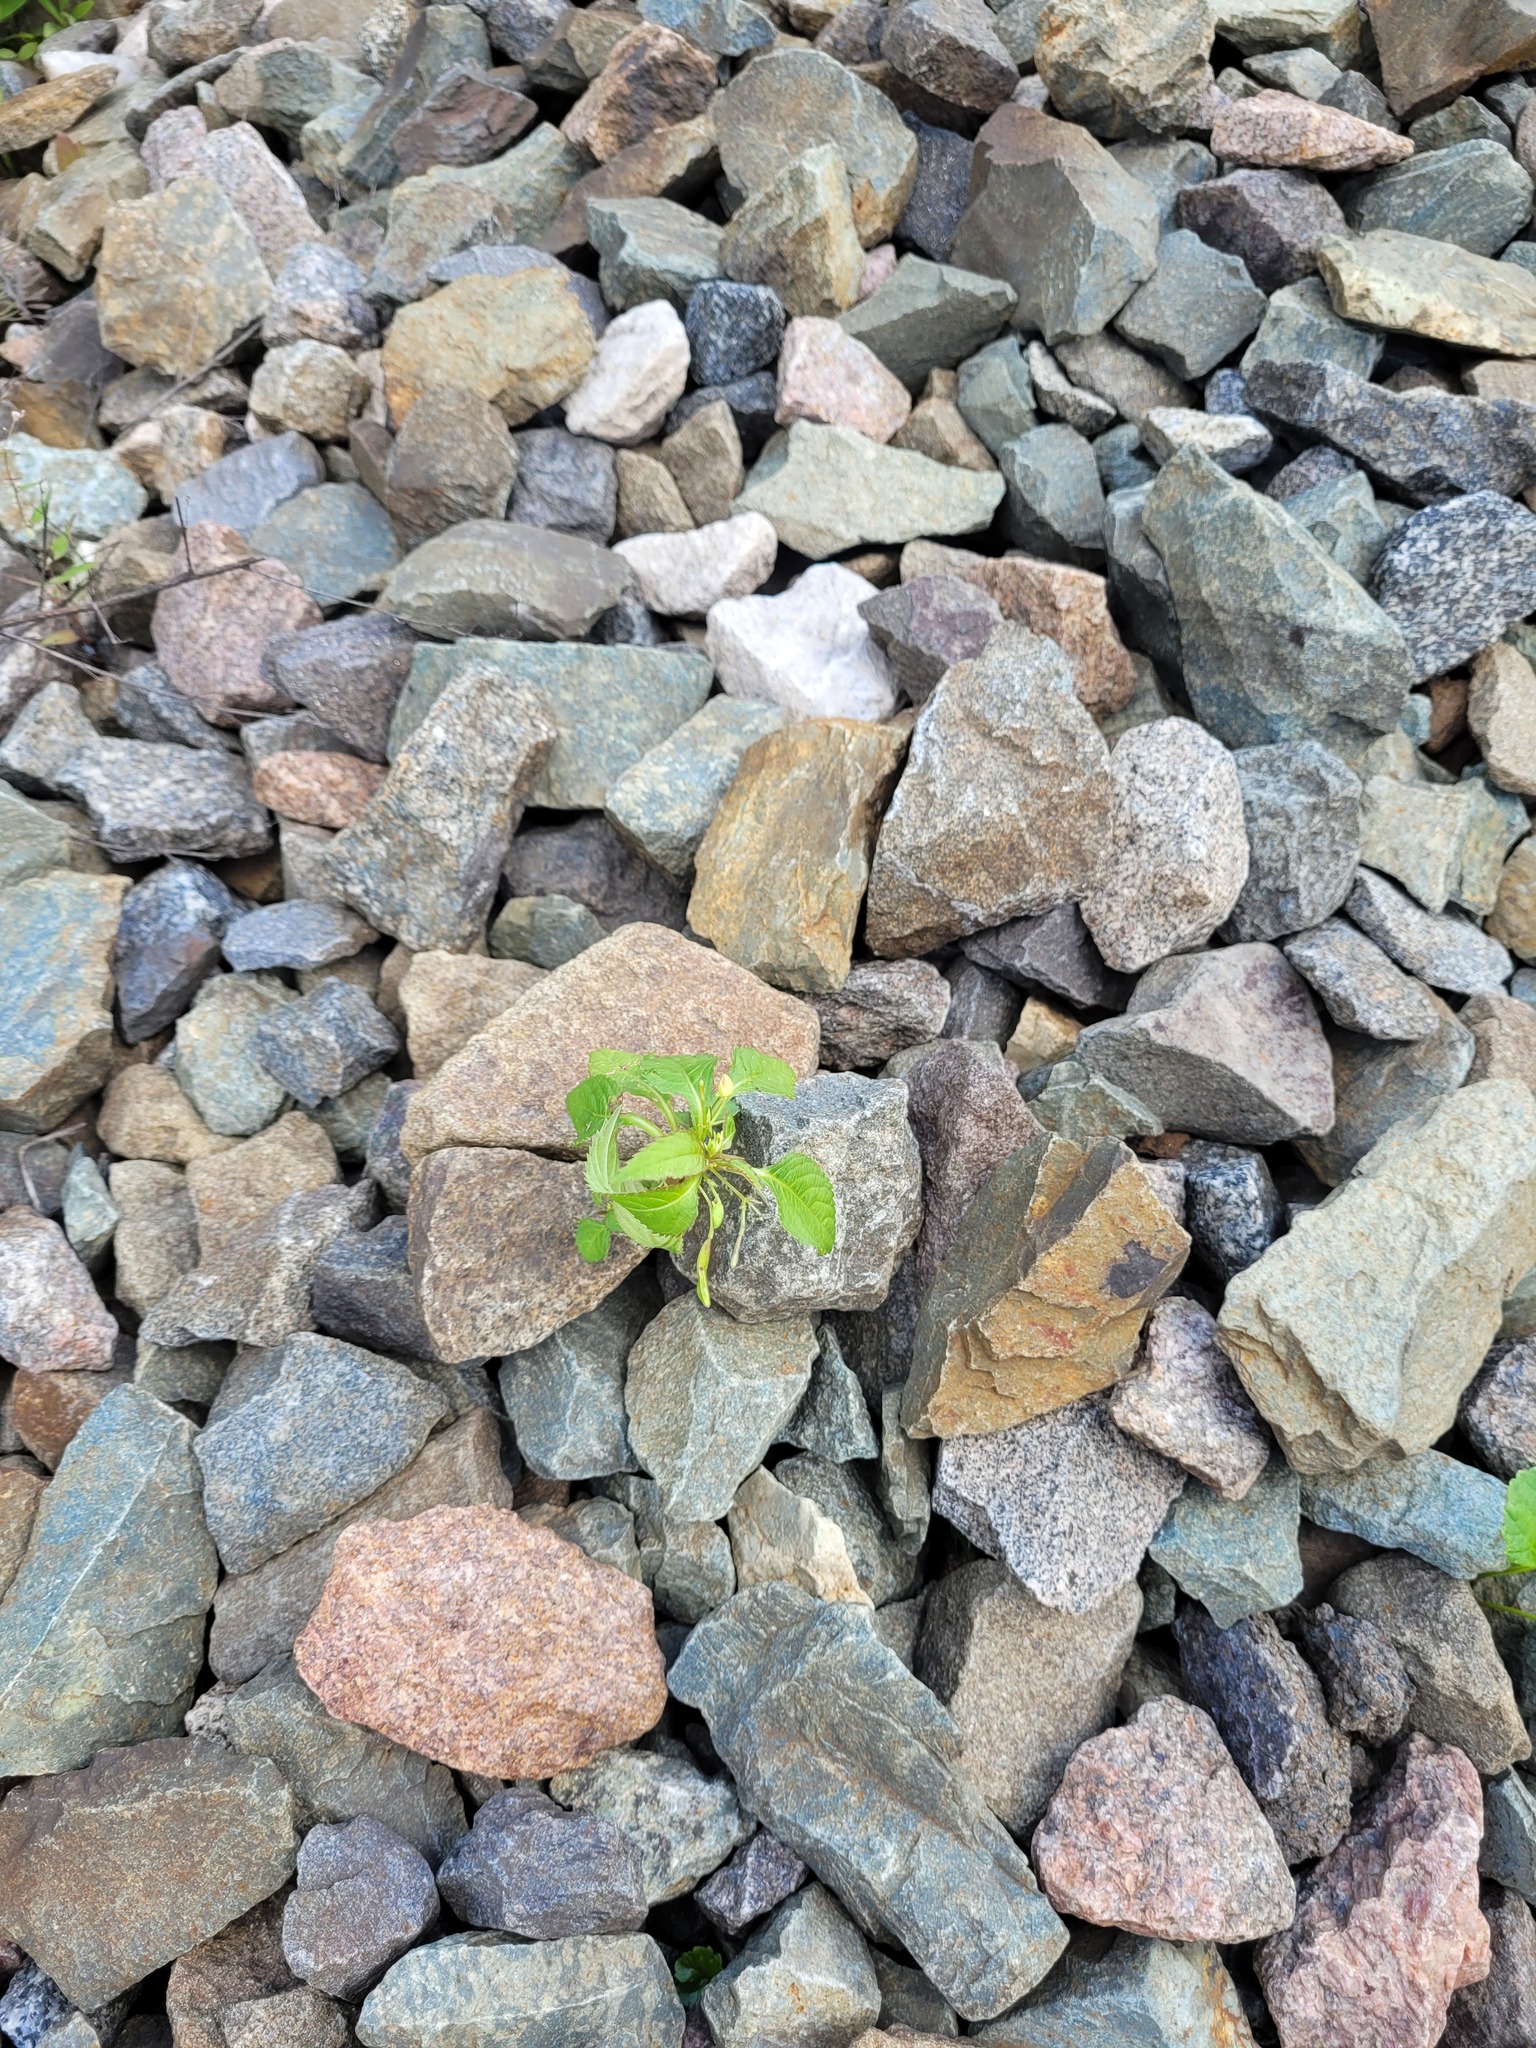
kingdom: Plantae
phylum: Tracheophyta
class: Magnoliopsida
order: Ericales
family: Balsaminaceae
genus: Impatiens
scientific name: Impatiens parviflora
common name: Small balsam
